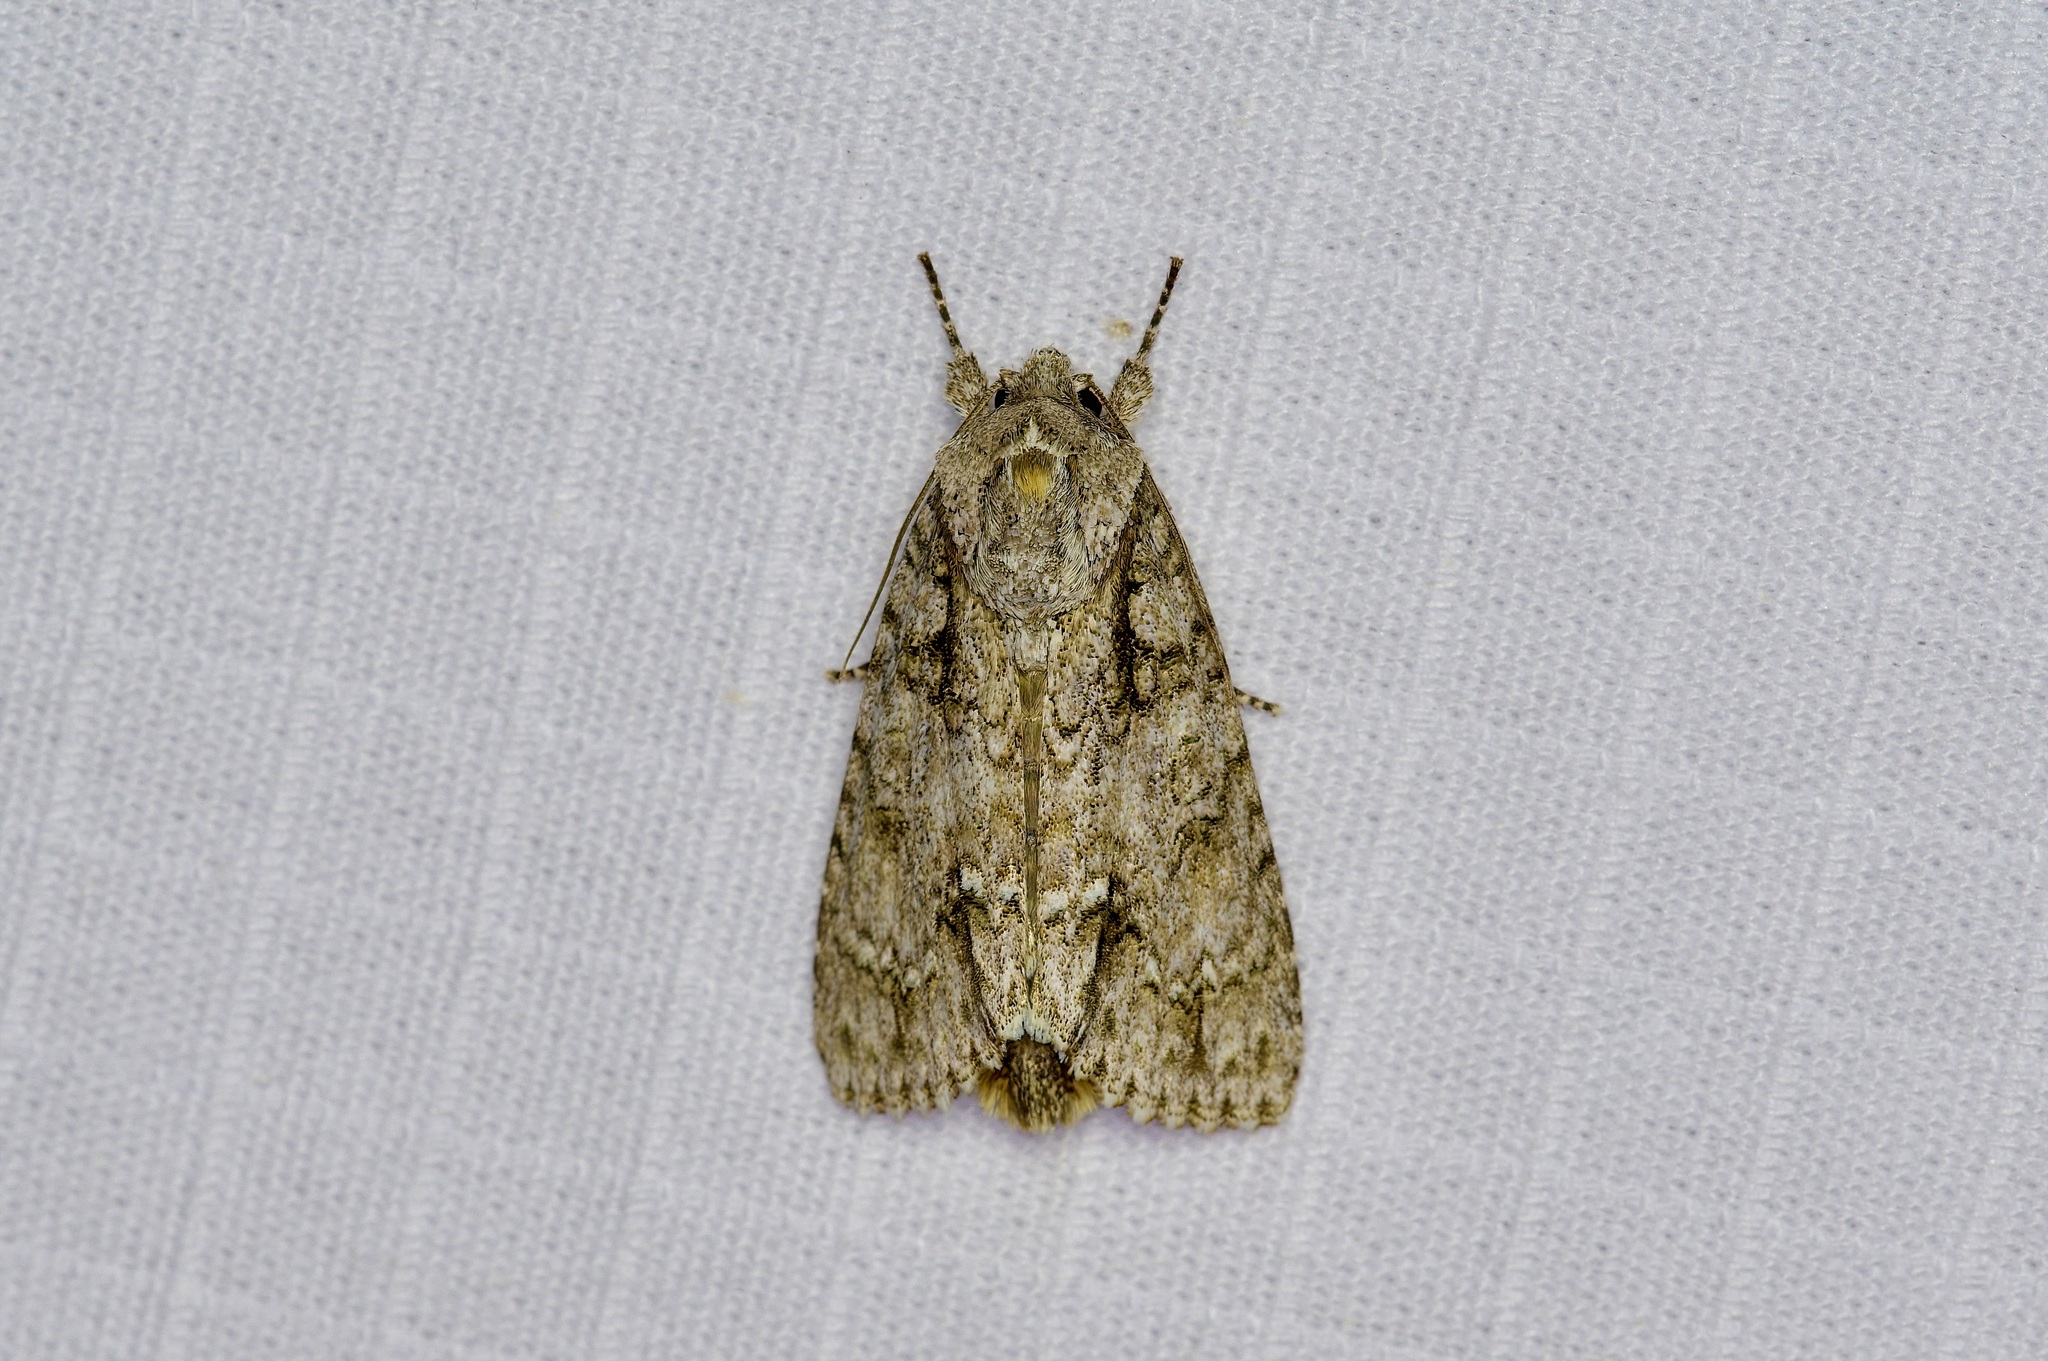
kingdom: Animalia
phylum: Arthropoda
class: Insecta
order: Lepidoptera
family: Noctuidae
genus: Acronicta
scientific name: Acronicta clarescens
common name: Clear dagger
